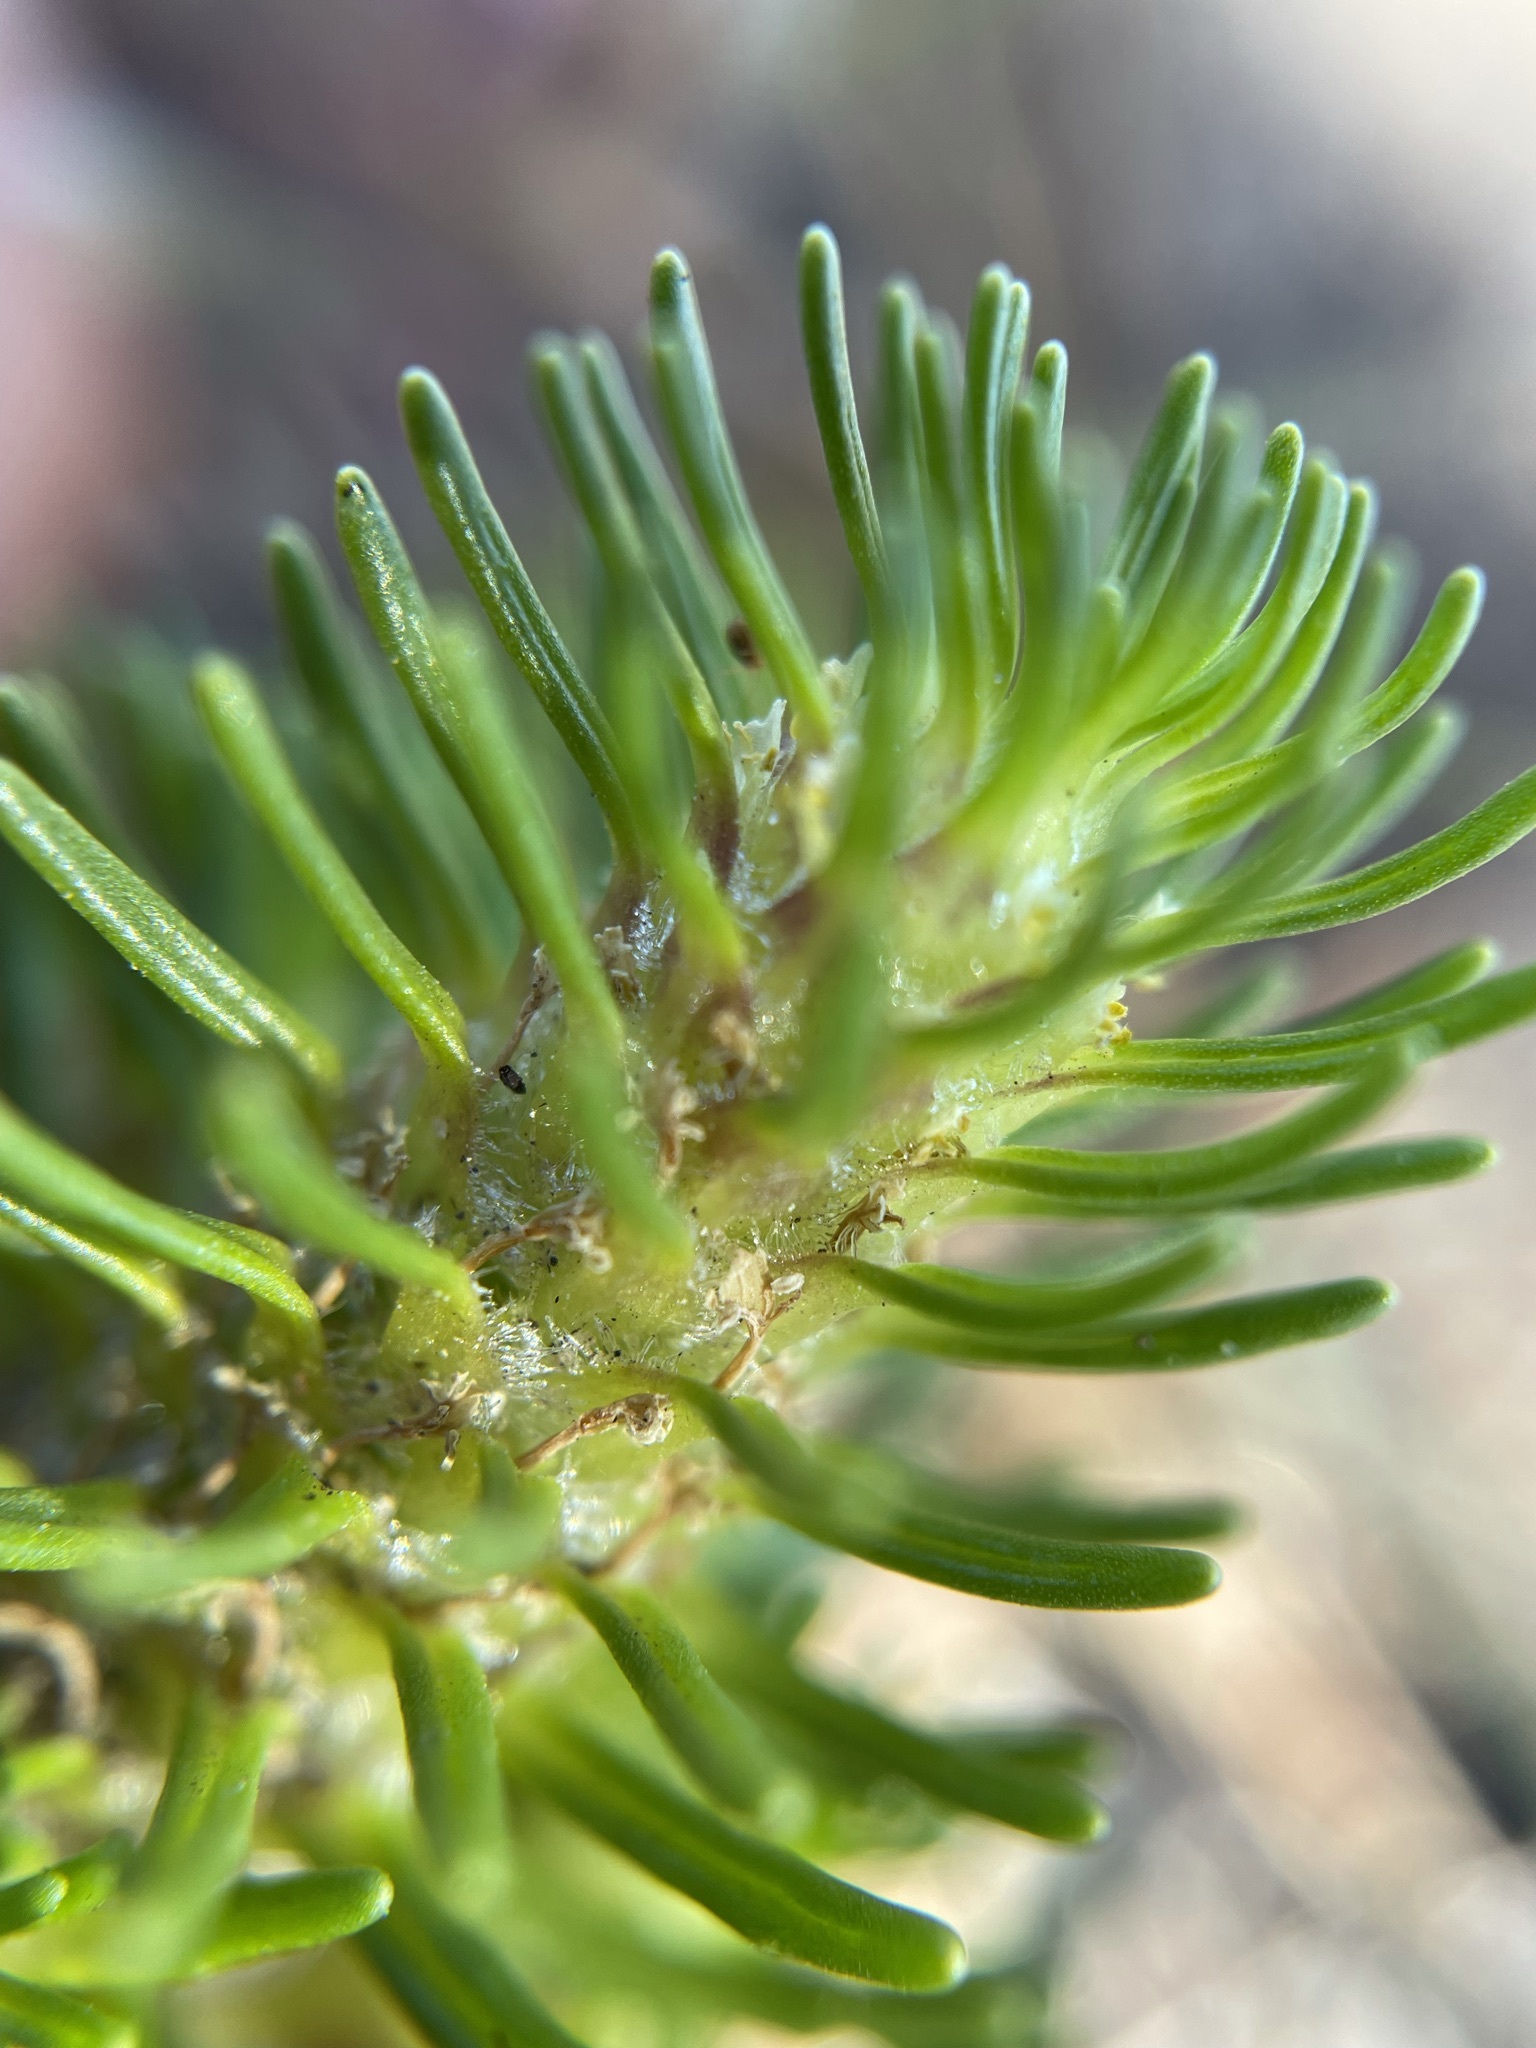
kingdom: Plantae
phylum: Tracheophyta
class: Magnoliopsida
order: Lamiales
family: Scrophulariaceae
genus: Dischisma
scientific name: Dischisma capitatum
